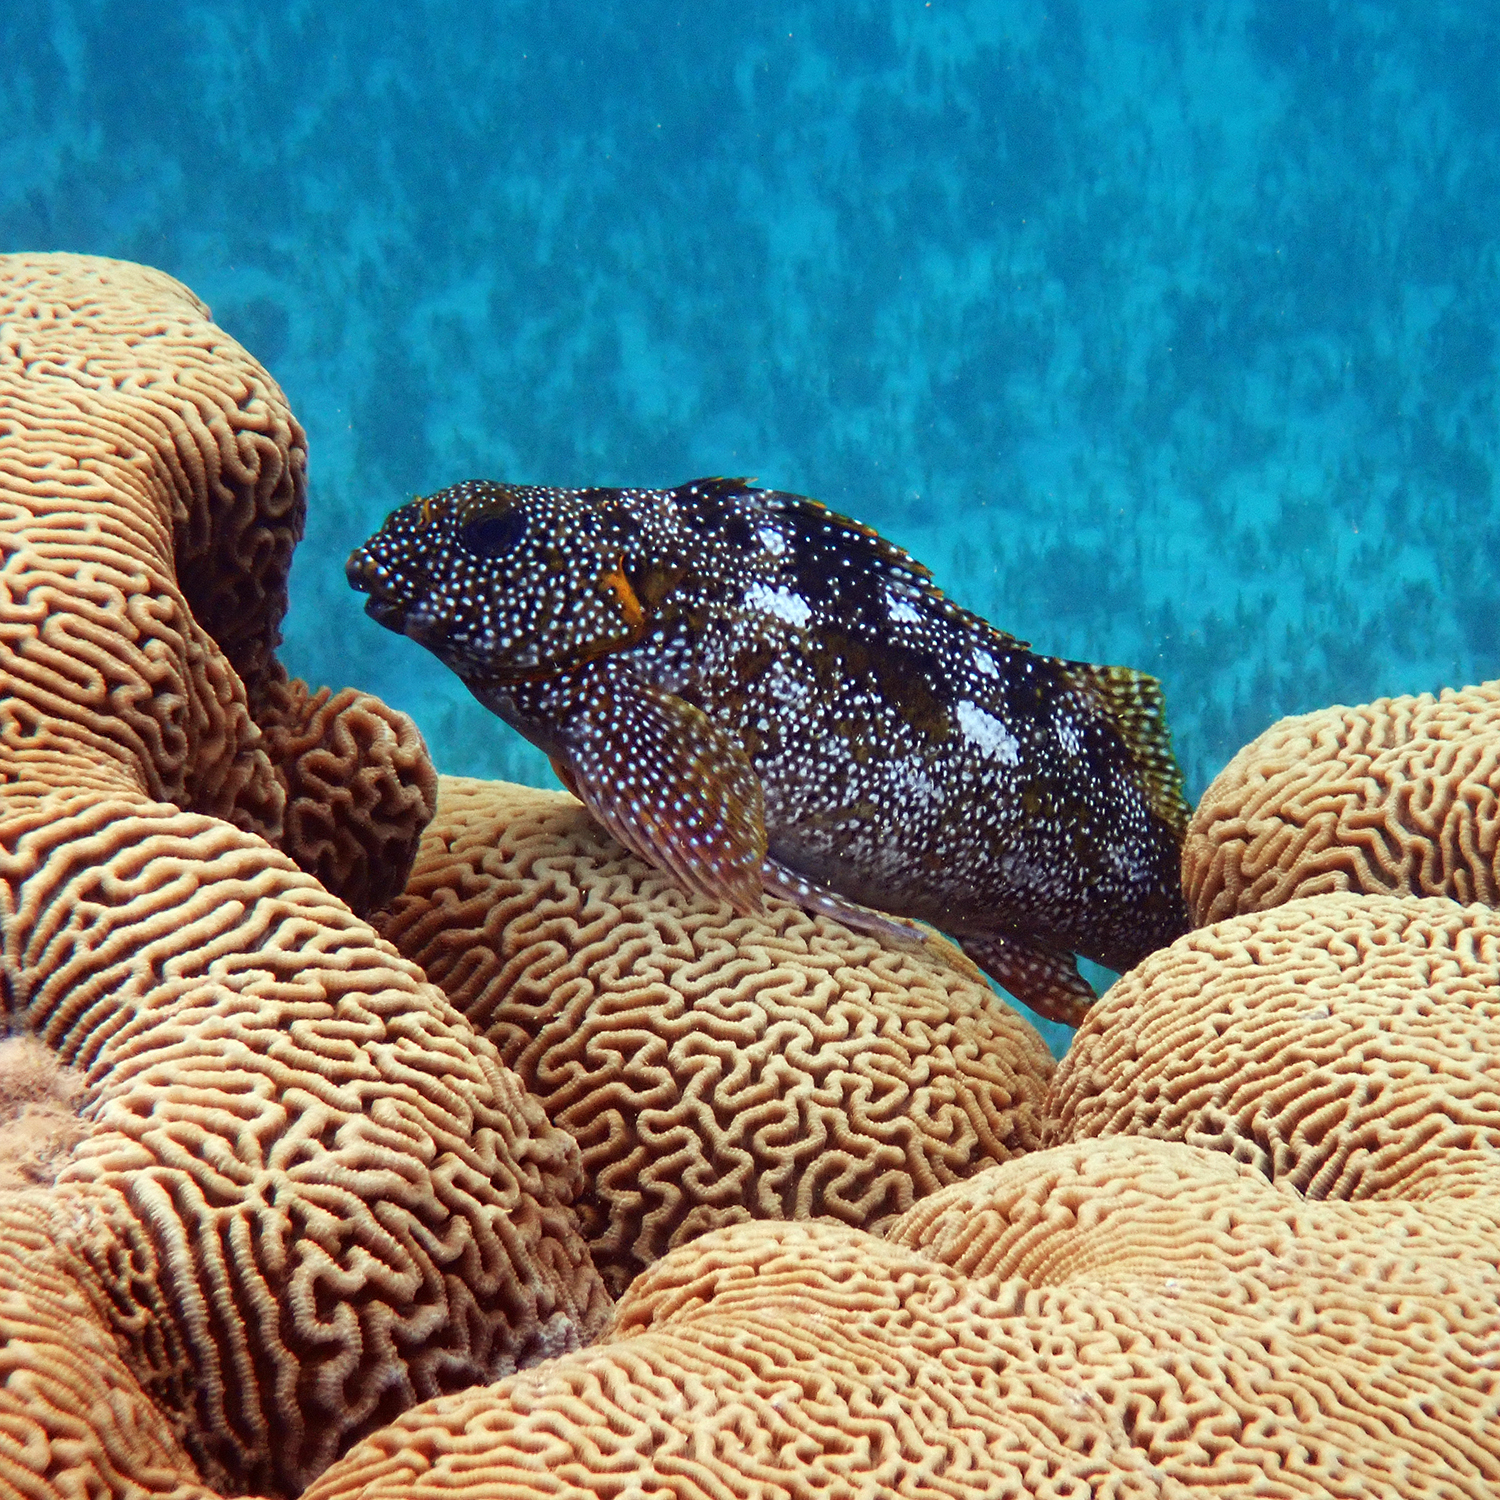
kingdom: Animalia
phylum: Chordata
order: Perciformes
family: Aplodactylidae
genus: Aplodactylus
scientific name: Aplodactylus etheridgii
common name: Notchheaded marblefish
